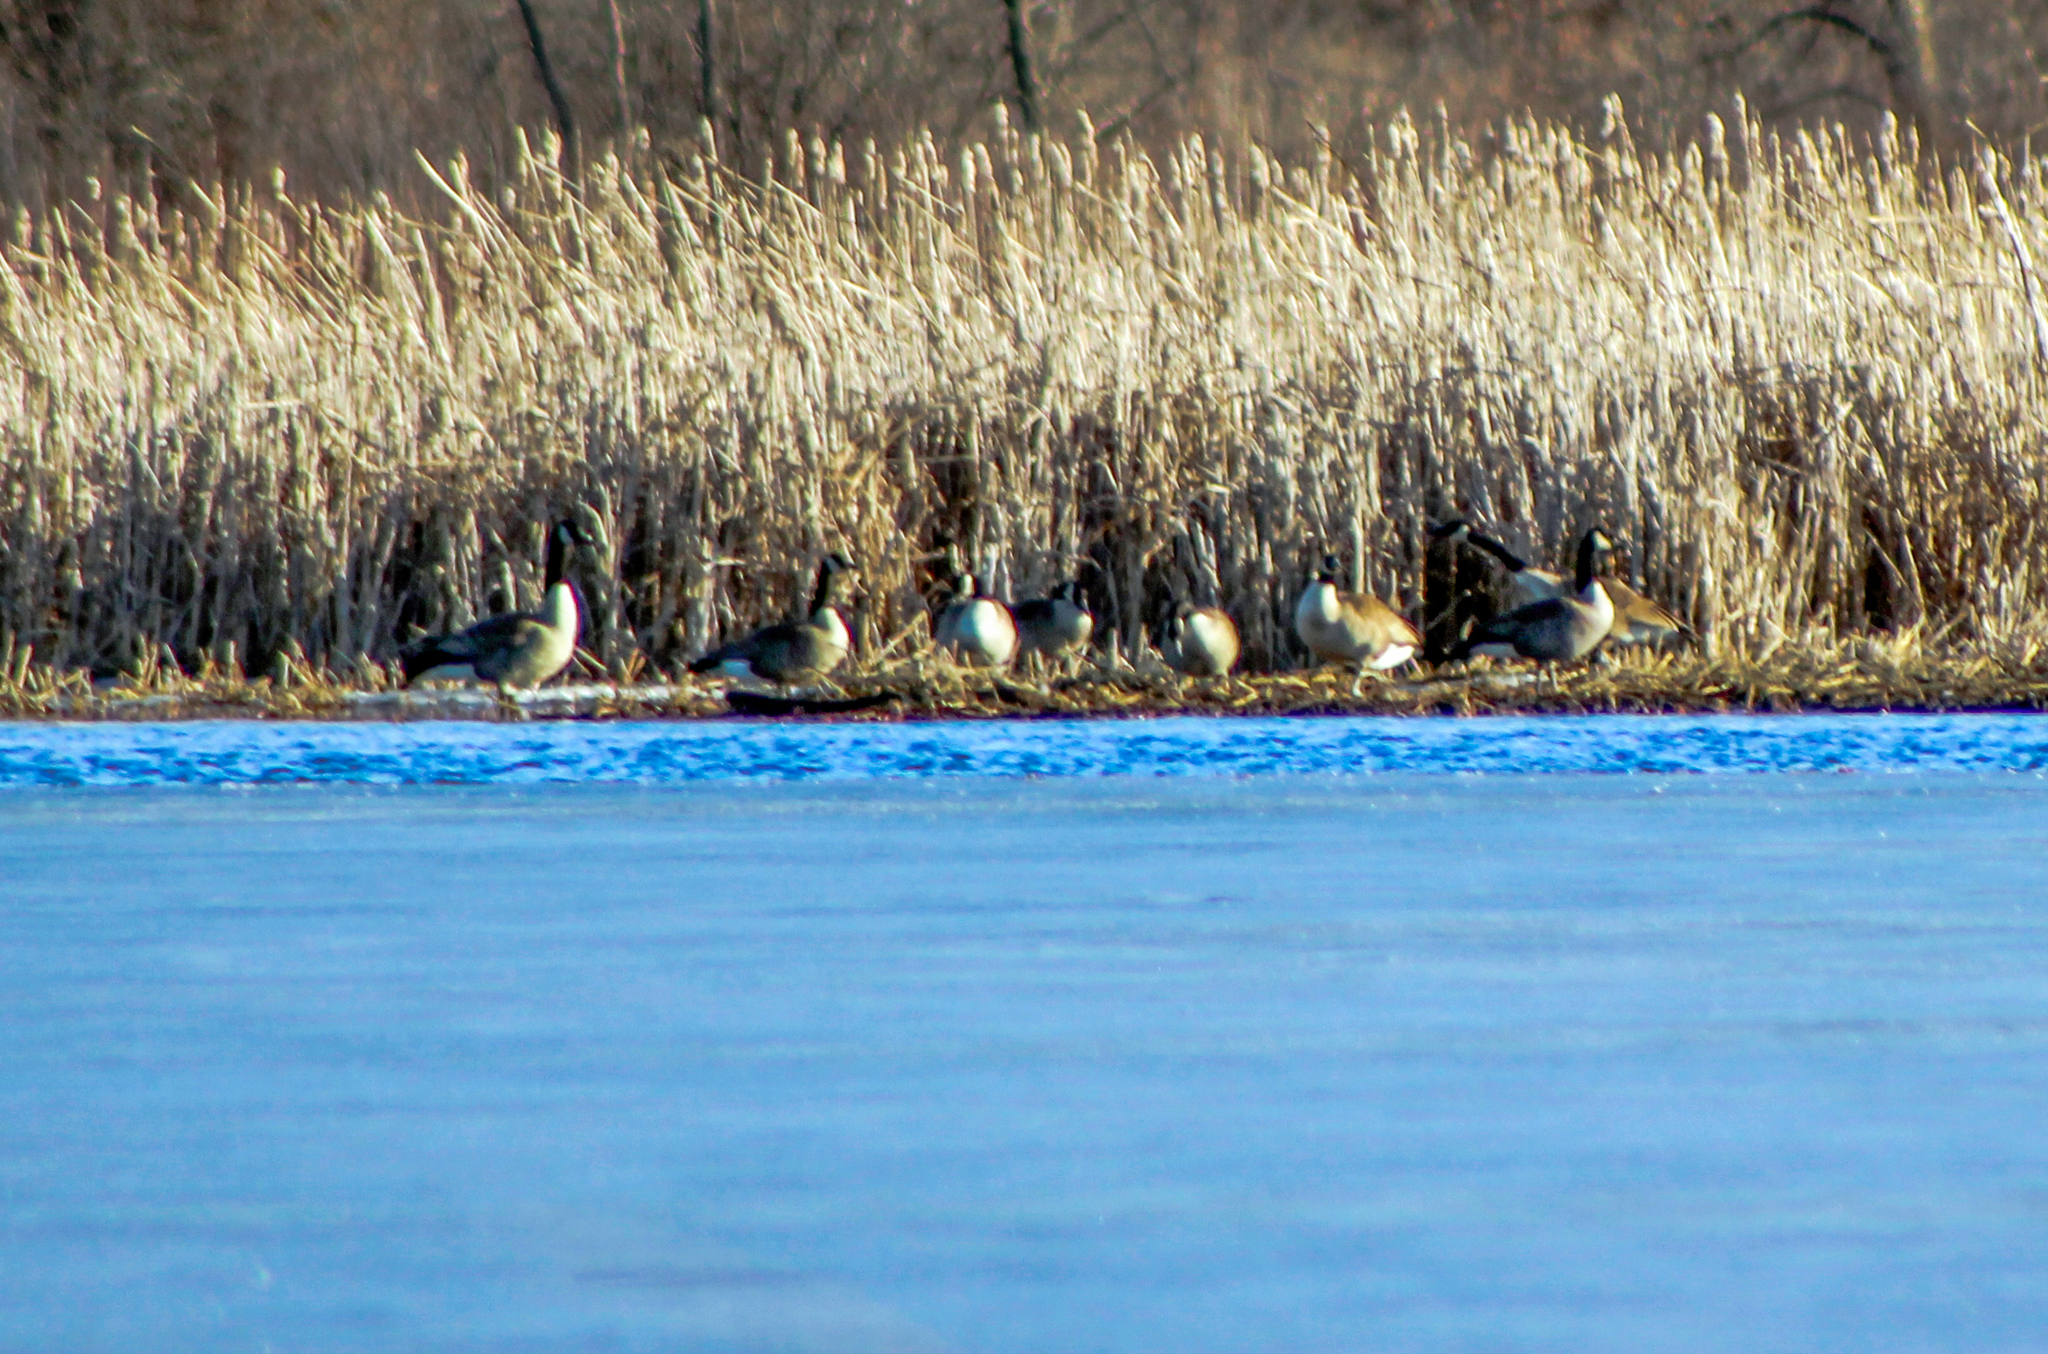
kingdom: Animalia
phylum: Chordata
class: Aves
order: Anseriformes
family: Anatidae
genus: Branta
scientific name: Branta canadensis
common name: Canada goose
